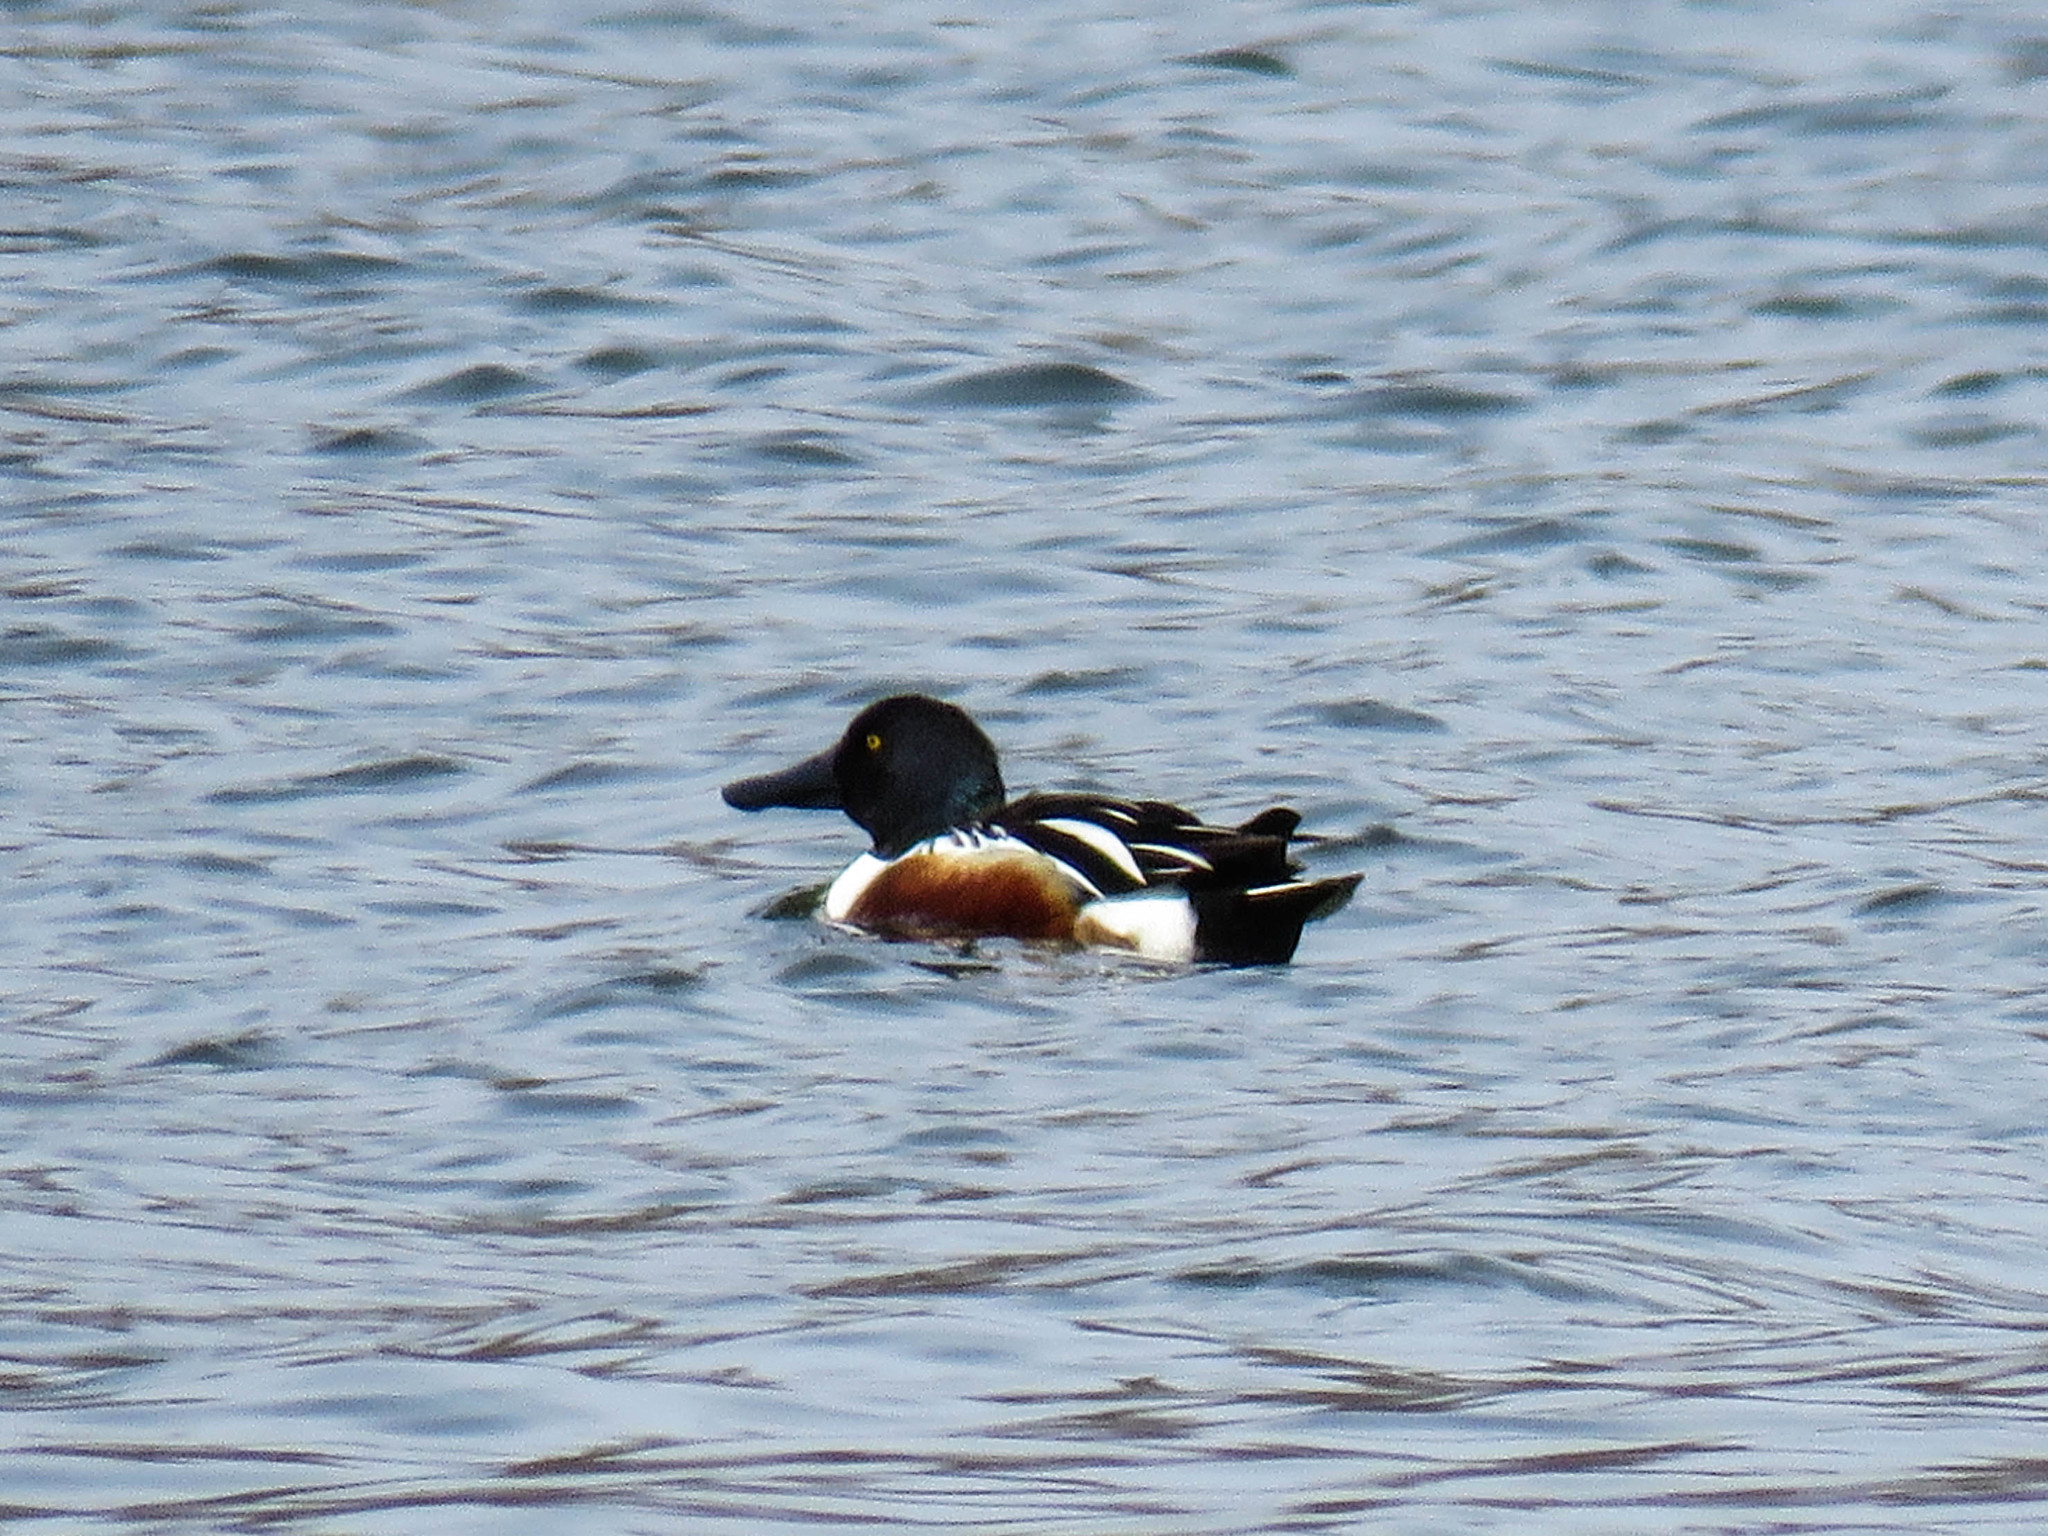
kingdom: Animalia
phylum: Chordata
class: Aves
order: Anseriformes
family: Anatidae
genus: Spatula
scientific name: Spatula clypeata
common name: Northern shoveler
